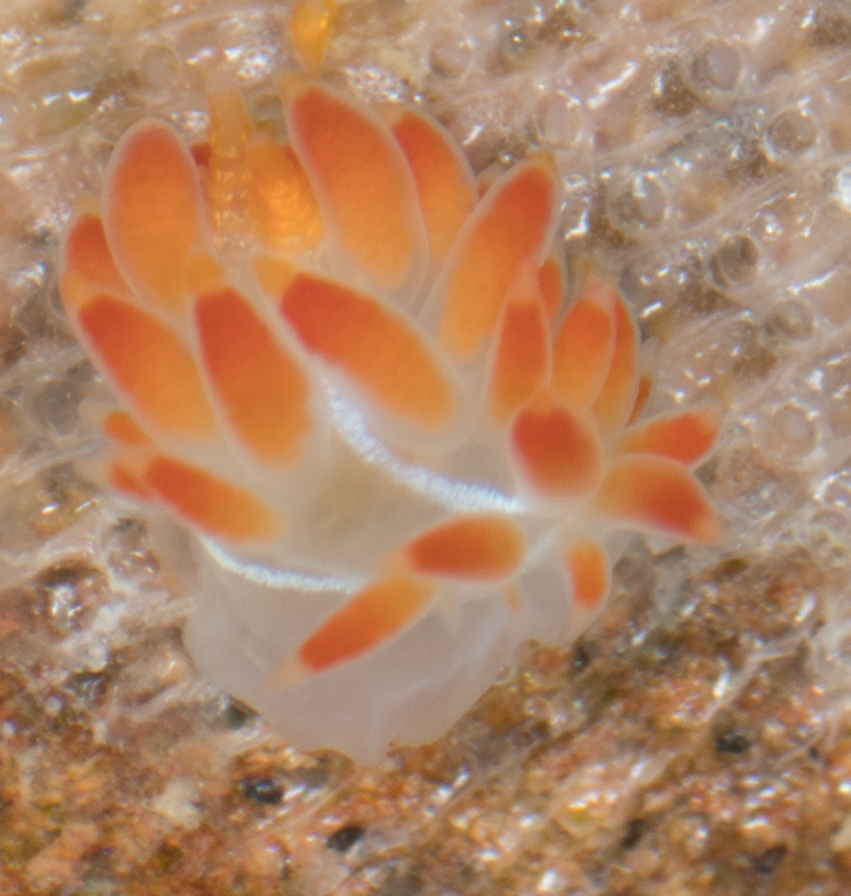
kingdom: Animalia
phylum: Mollusca
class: Gastropoda
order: Nudibranchia
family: Coryphellidae
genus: Coryphella
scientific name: Coryphella trilineata
